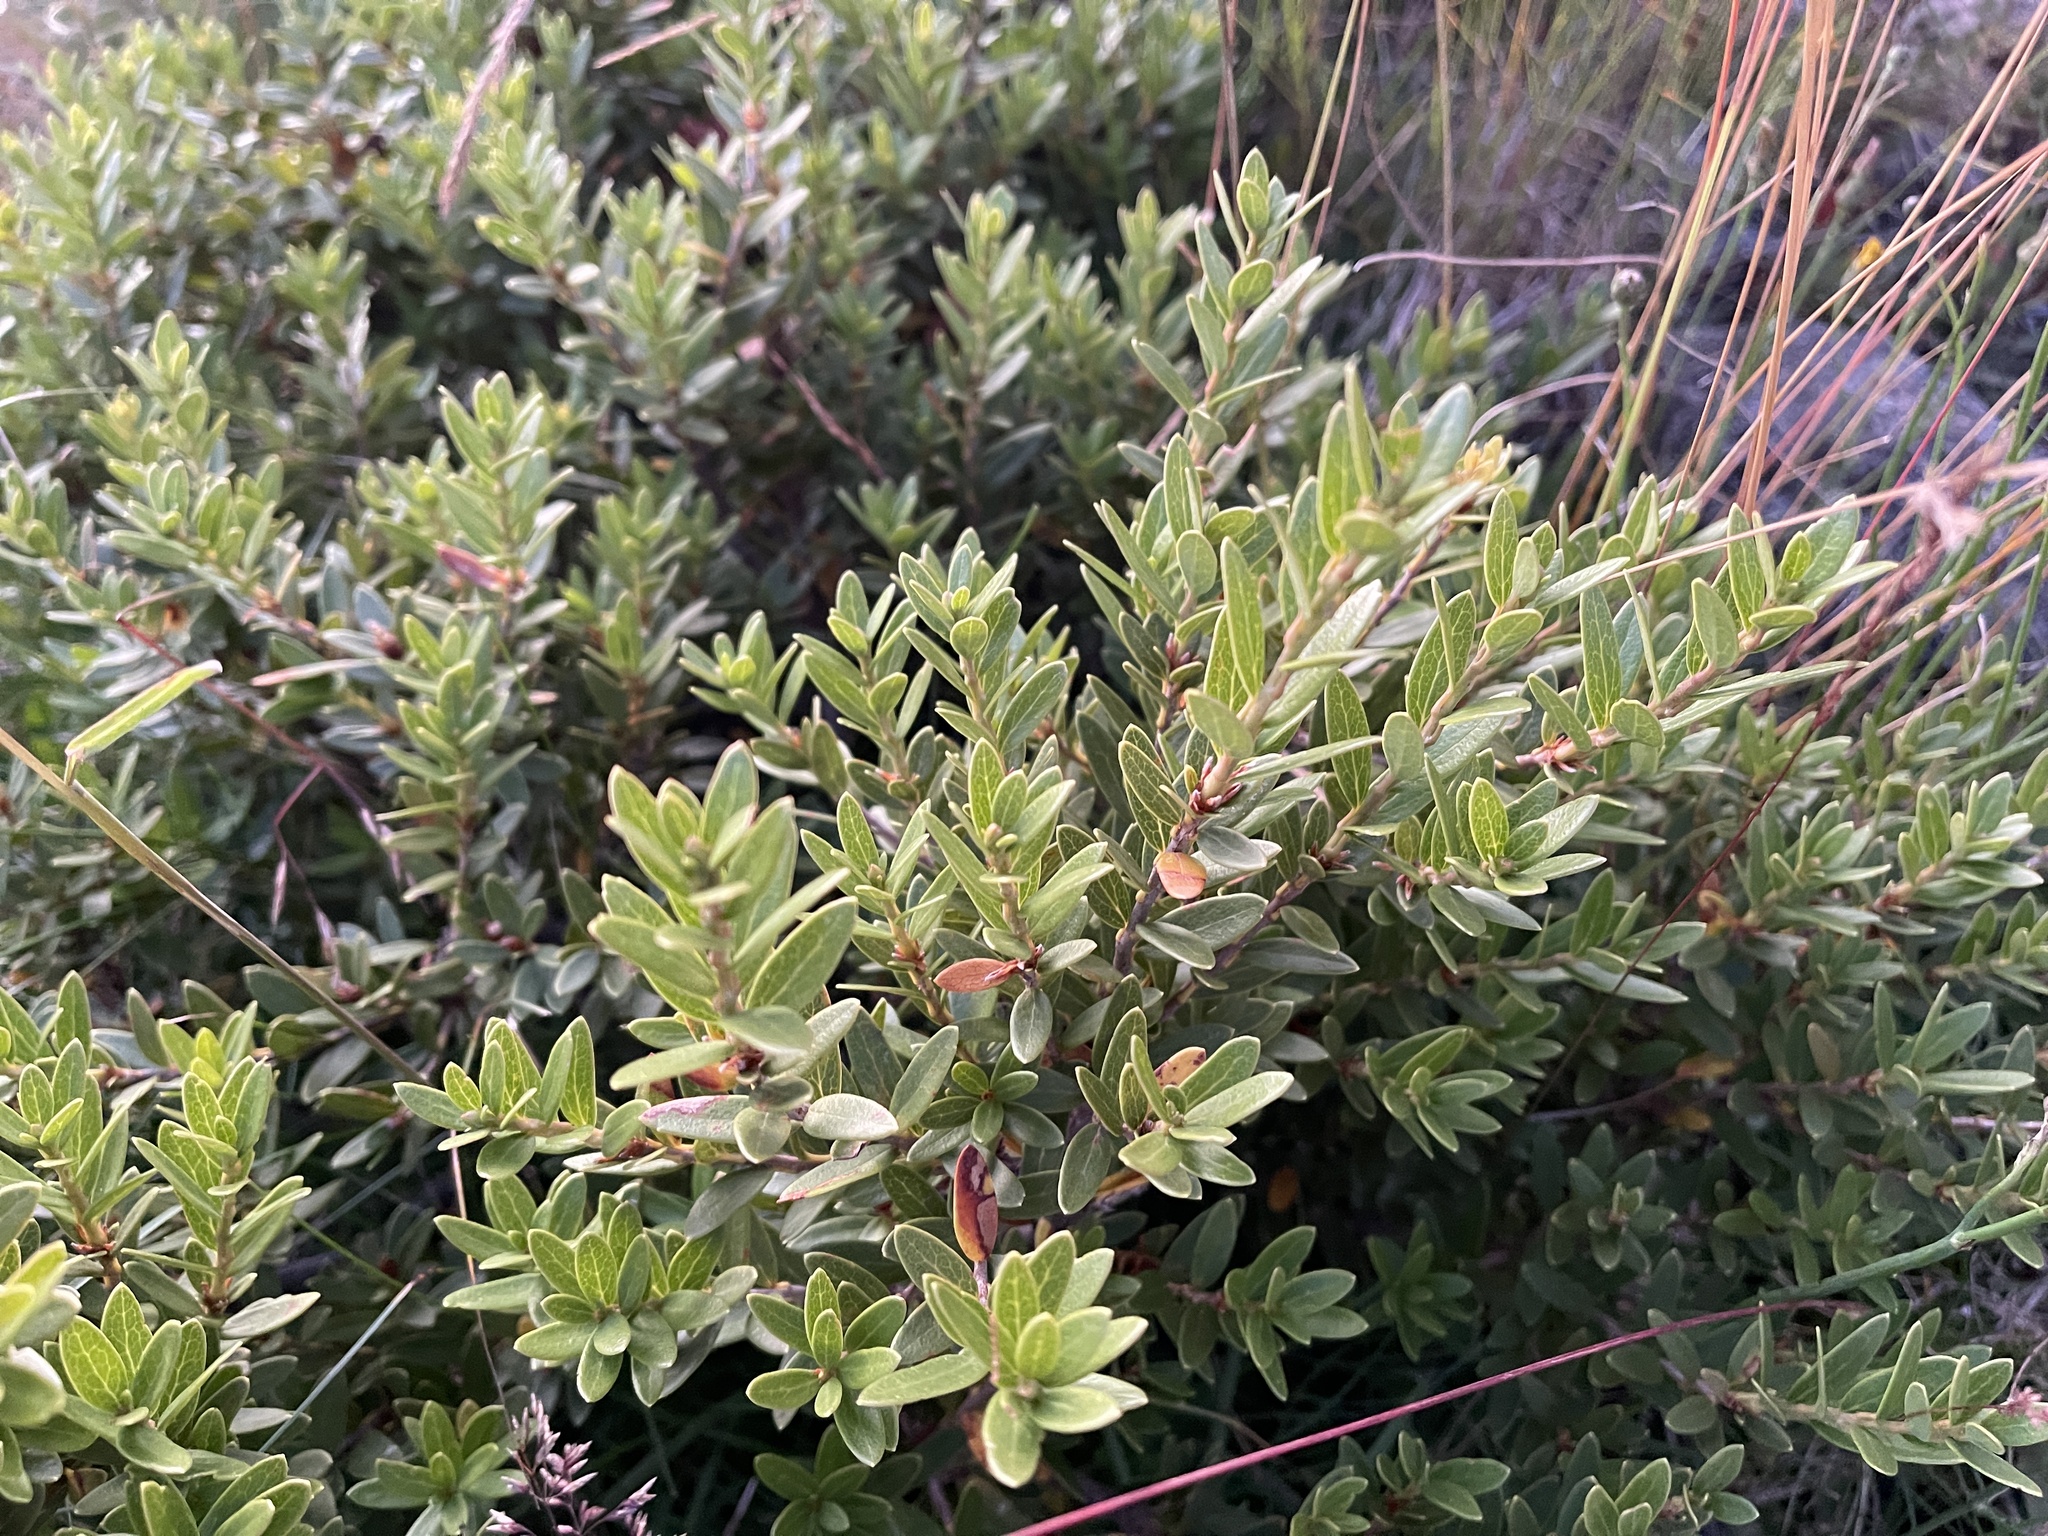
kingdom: Plantae
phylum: Tracheophyta
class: Magnoliopsida
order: Proteales
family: Proteaceae
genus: Orites
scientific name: Orites lancifolius
